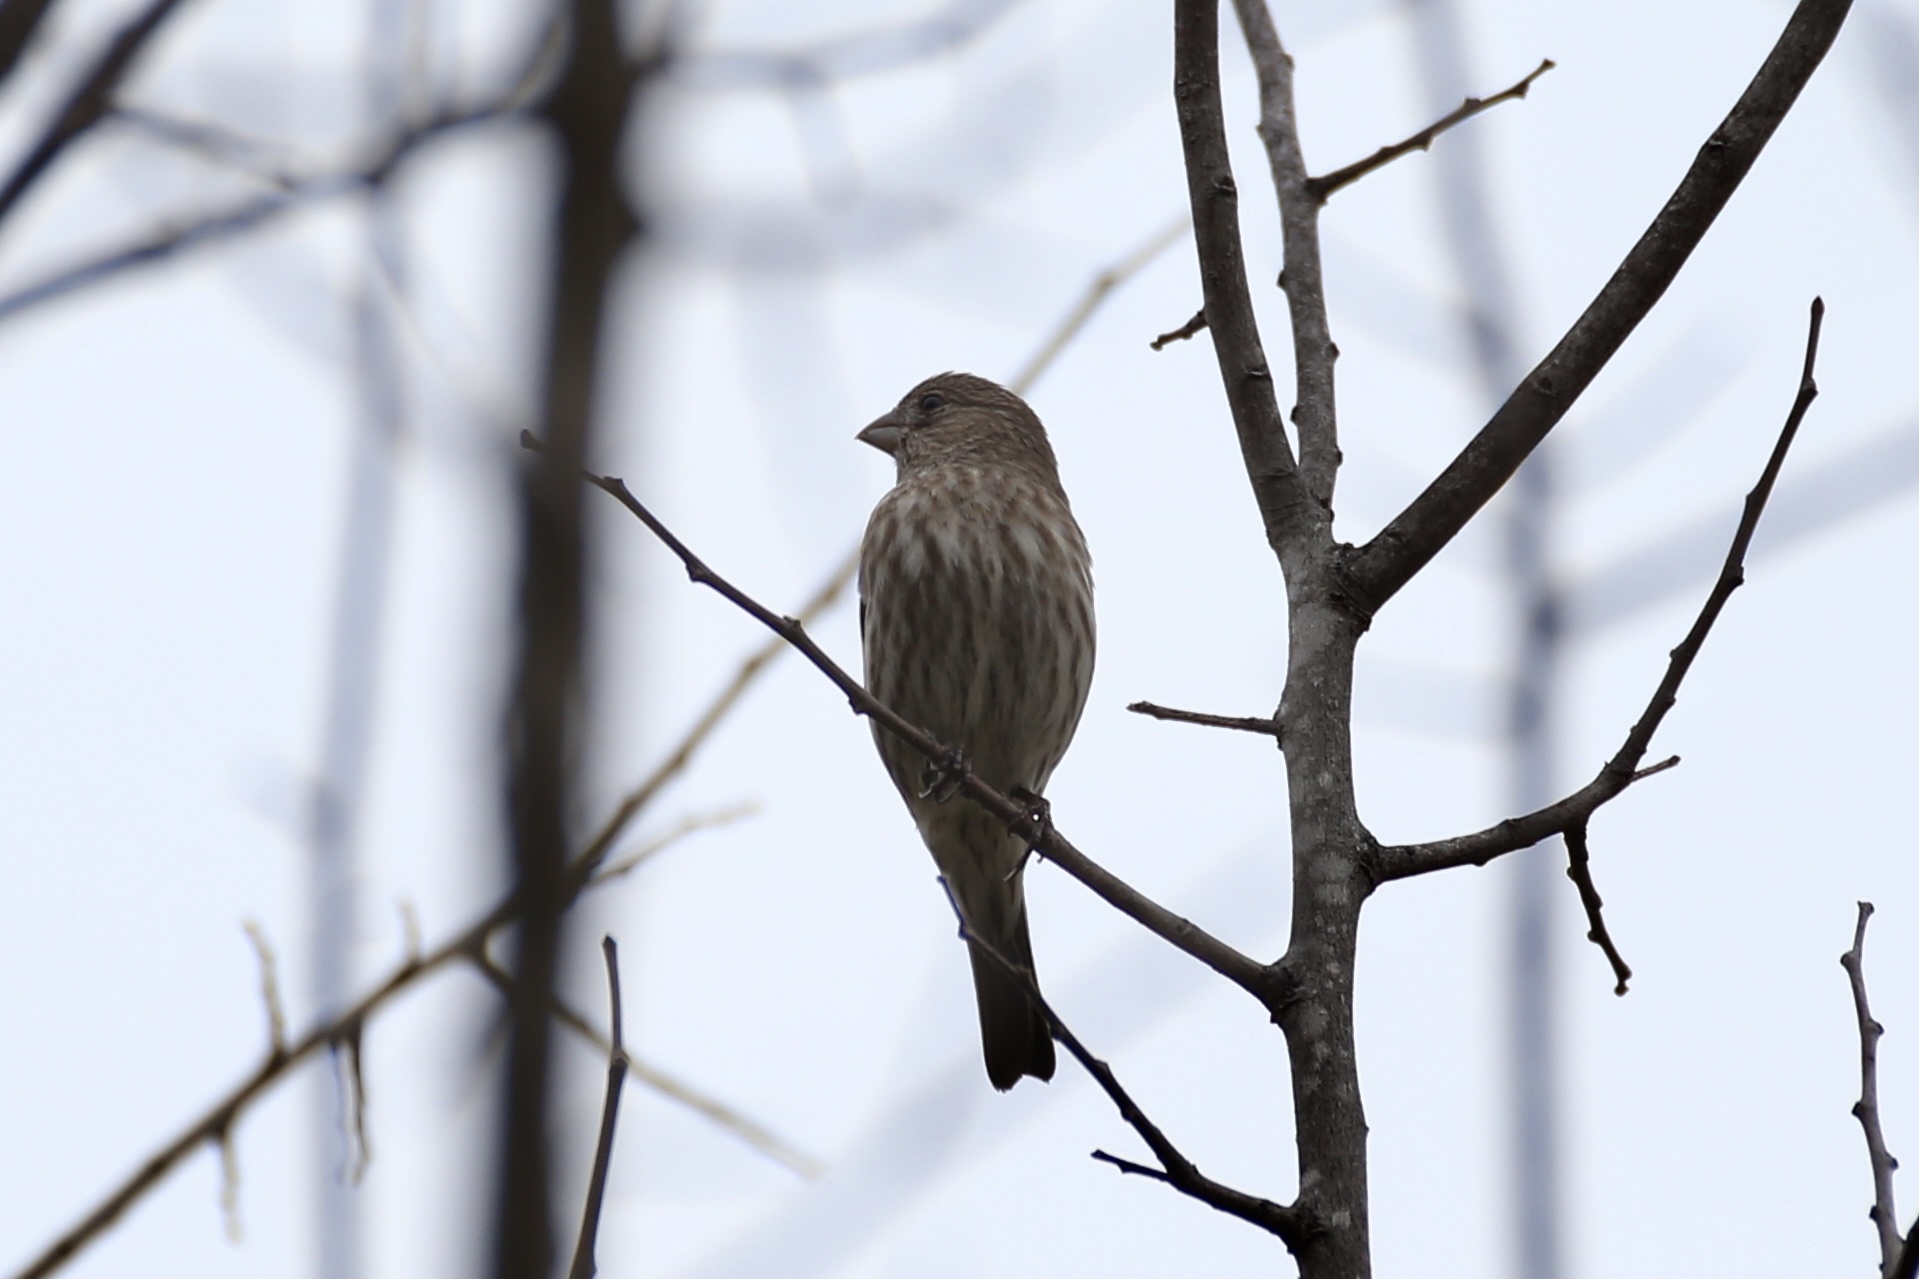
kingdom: Animalia
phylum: Chordata
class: Aves
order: Passeriformes
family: Fringillidae
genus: Haemorhous
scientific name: Haemorhous mexicanus
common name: House finch
